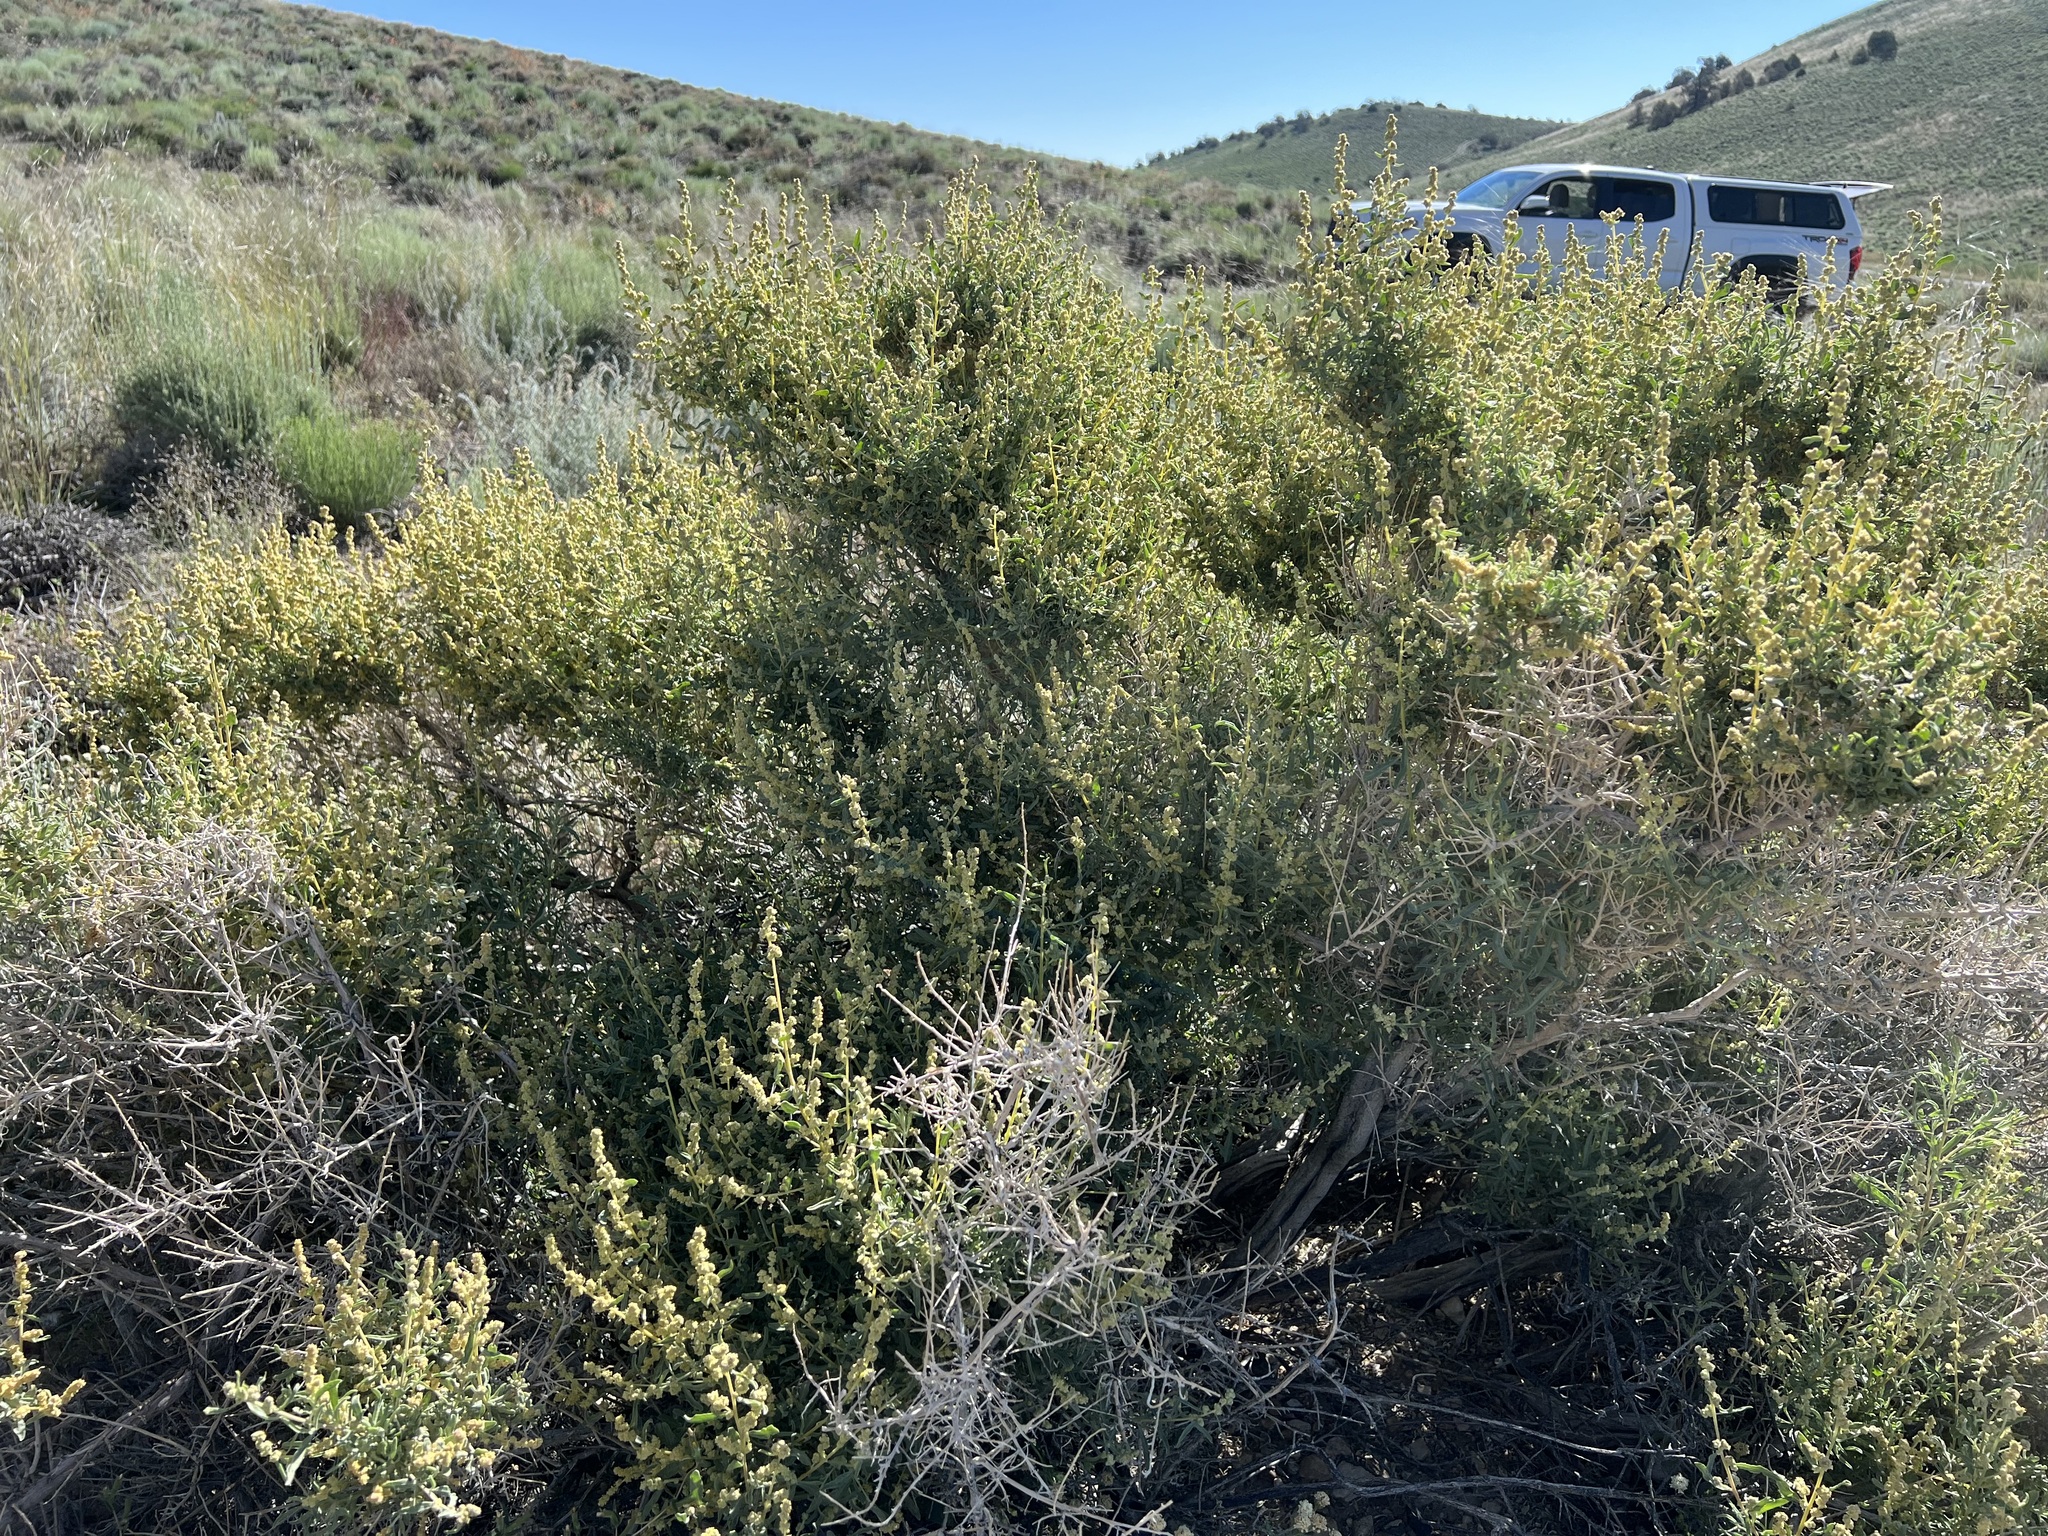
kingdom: Plantae
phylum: Tracheophyta
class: Magnoliopsida
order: Caryophyllales
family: Amaranthaceae
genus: Atriplex
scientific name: Atriplex canescens
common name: Four-wing saltbush
